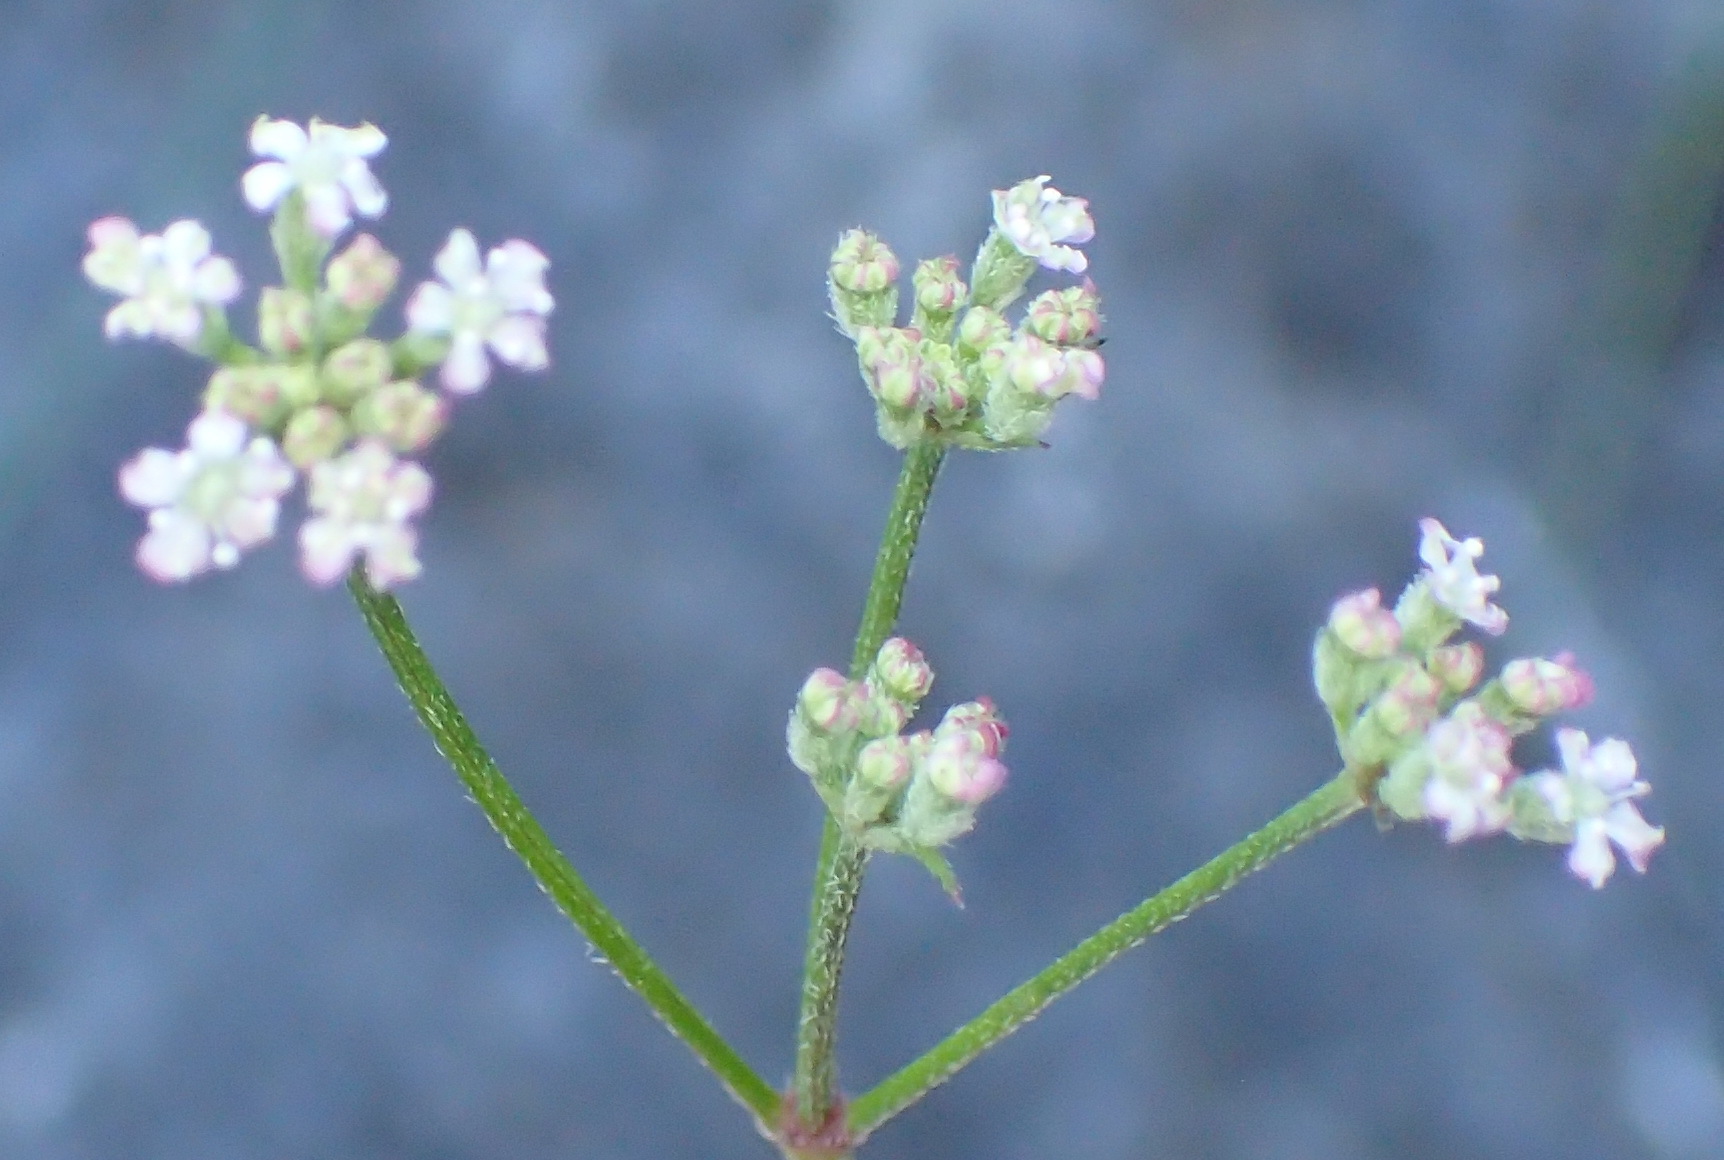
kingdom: Plantae
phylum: Tracheophyta
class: Magnoliopsida
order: Apiales
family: Apiaceae
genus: Torilis
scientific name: Torilis africana
